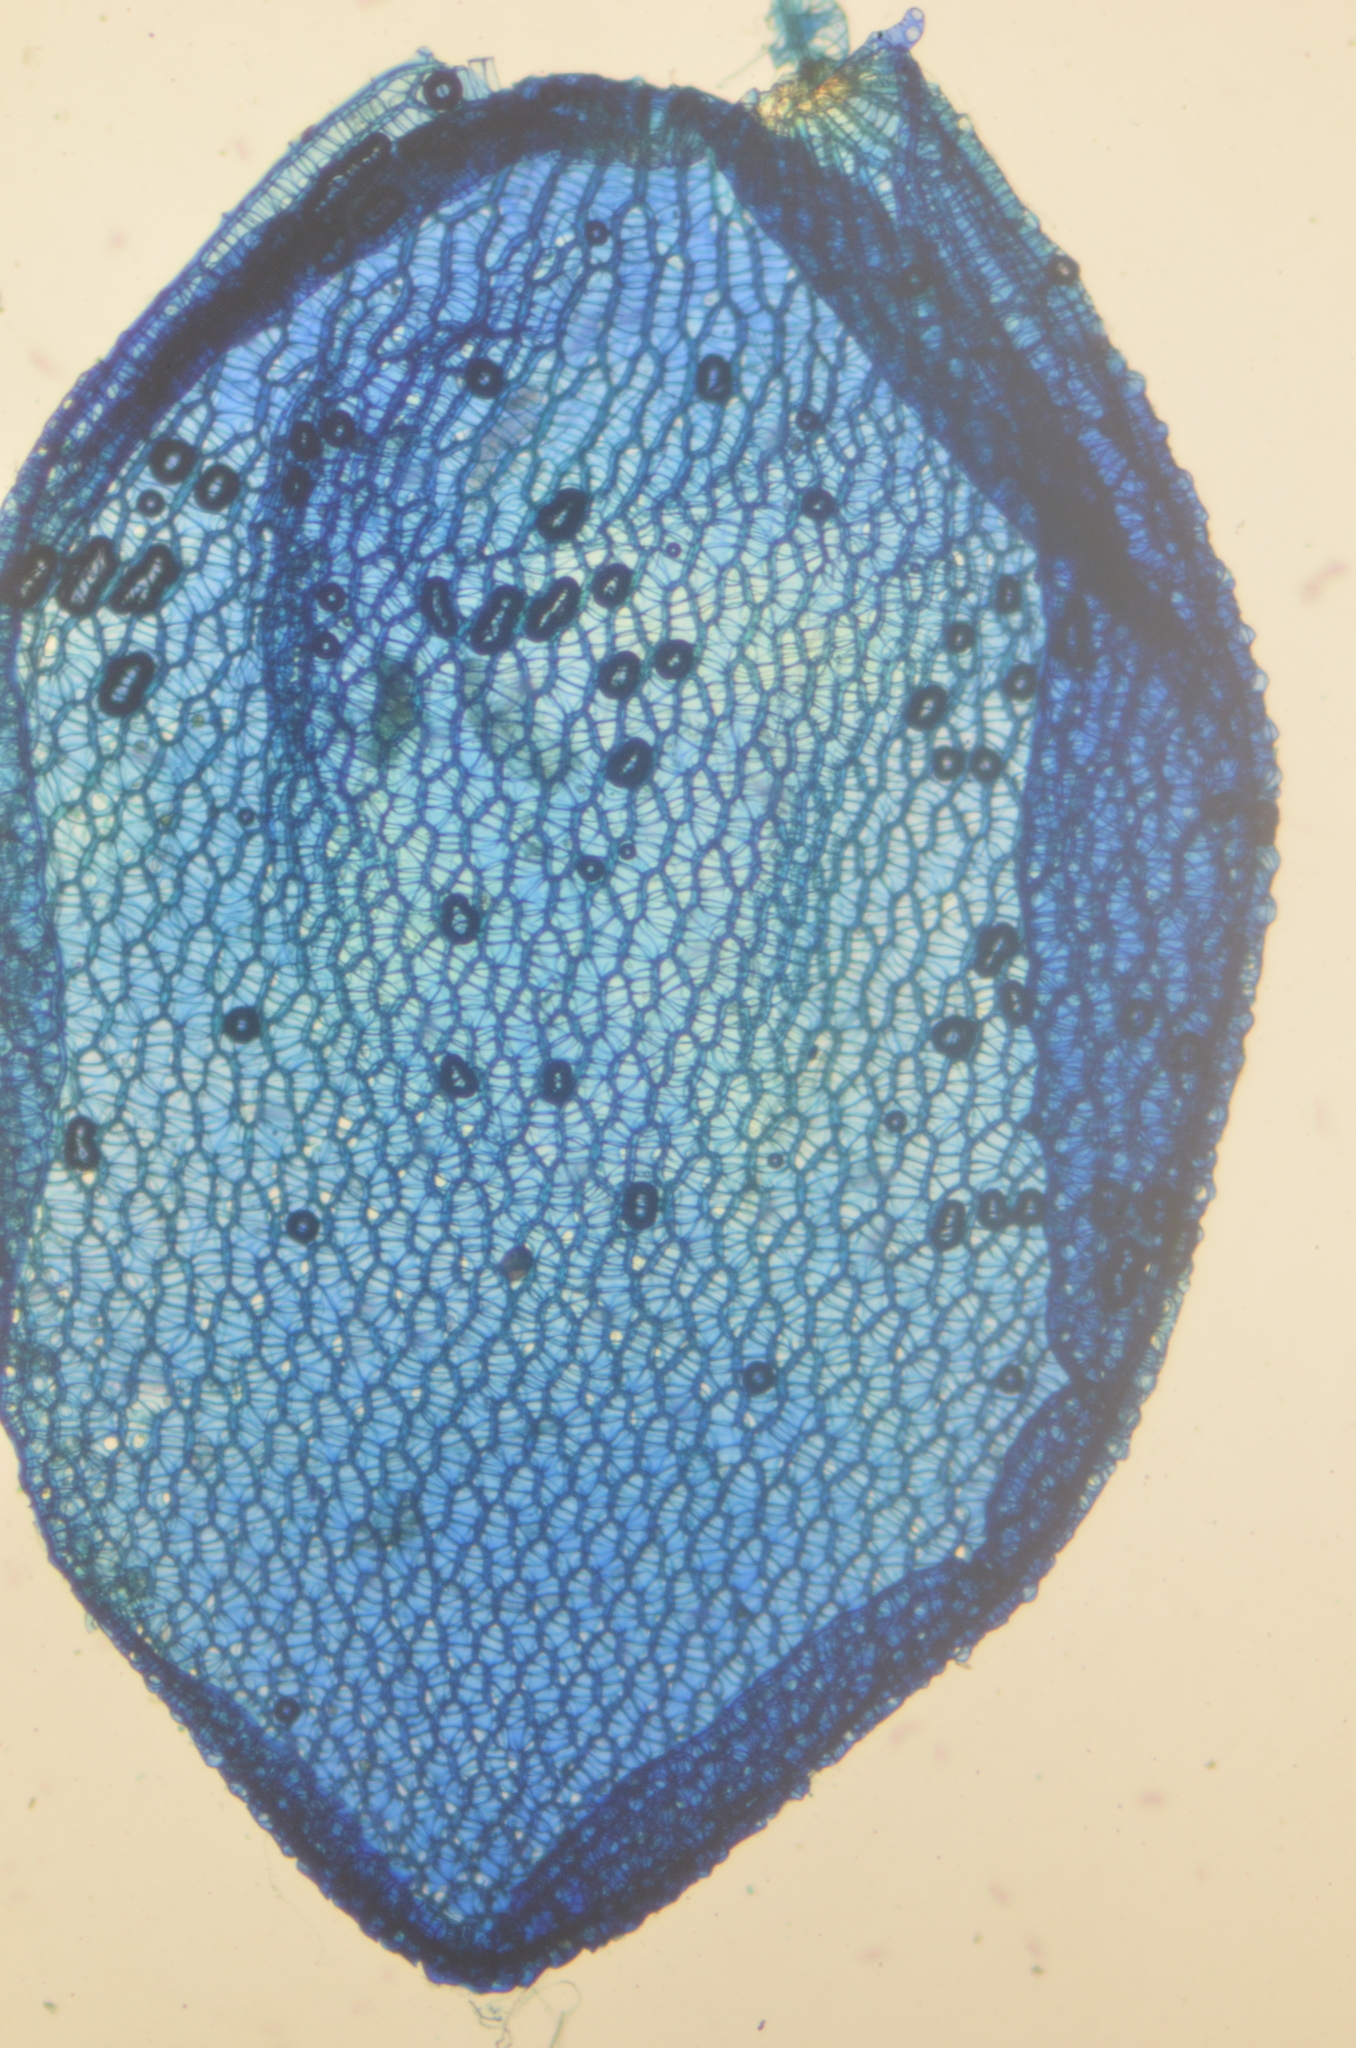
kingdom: Plantae
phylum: Bryophyta
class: Sphagnopsida
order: Sphagnales
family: Sphagnaceae
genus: Sphagnum
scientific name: Sphagnum palustre
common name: Blunt-leaved bog-moss
